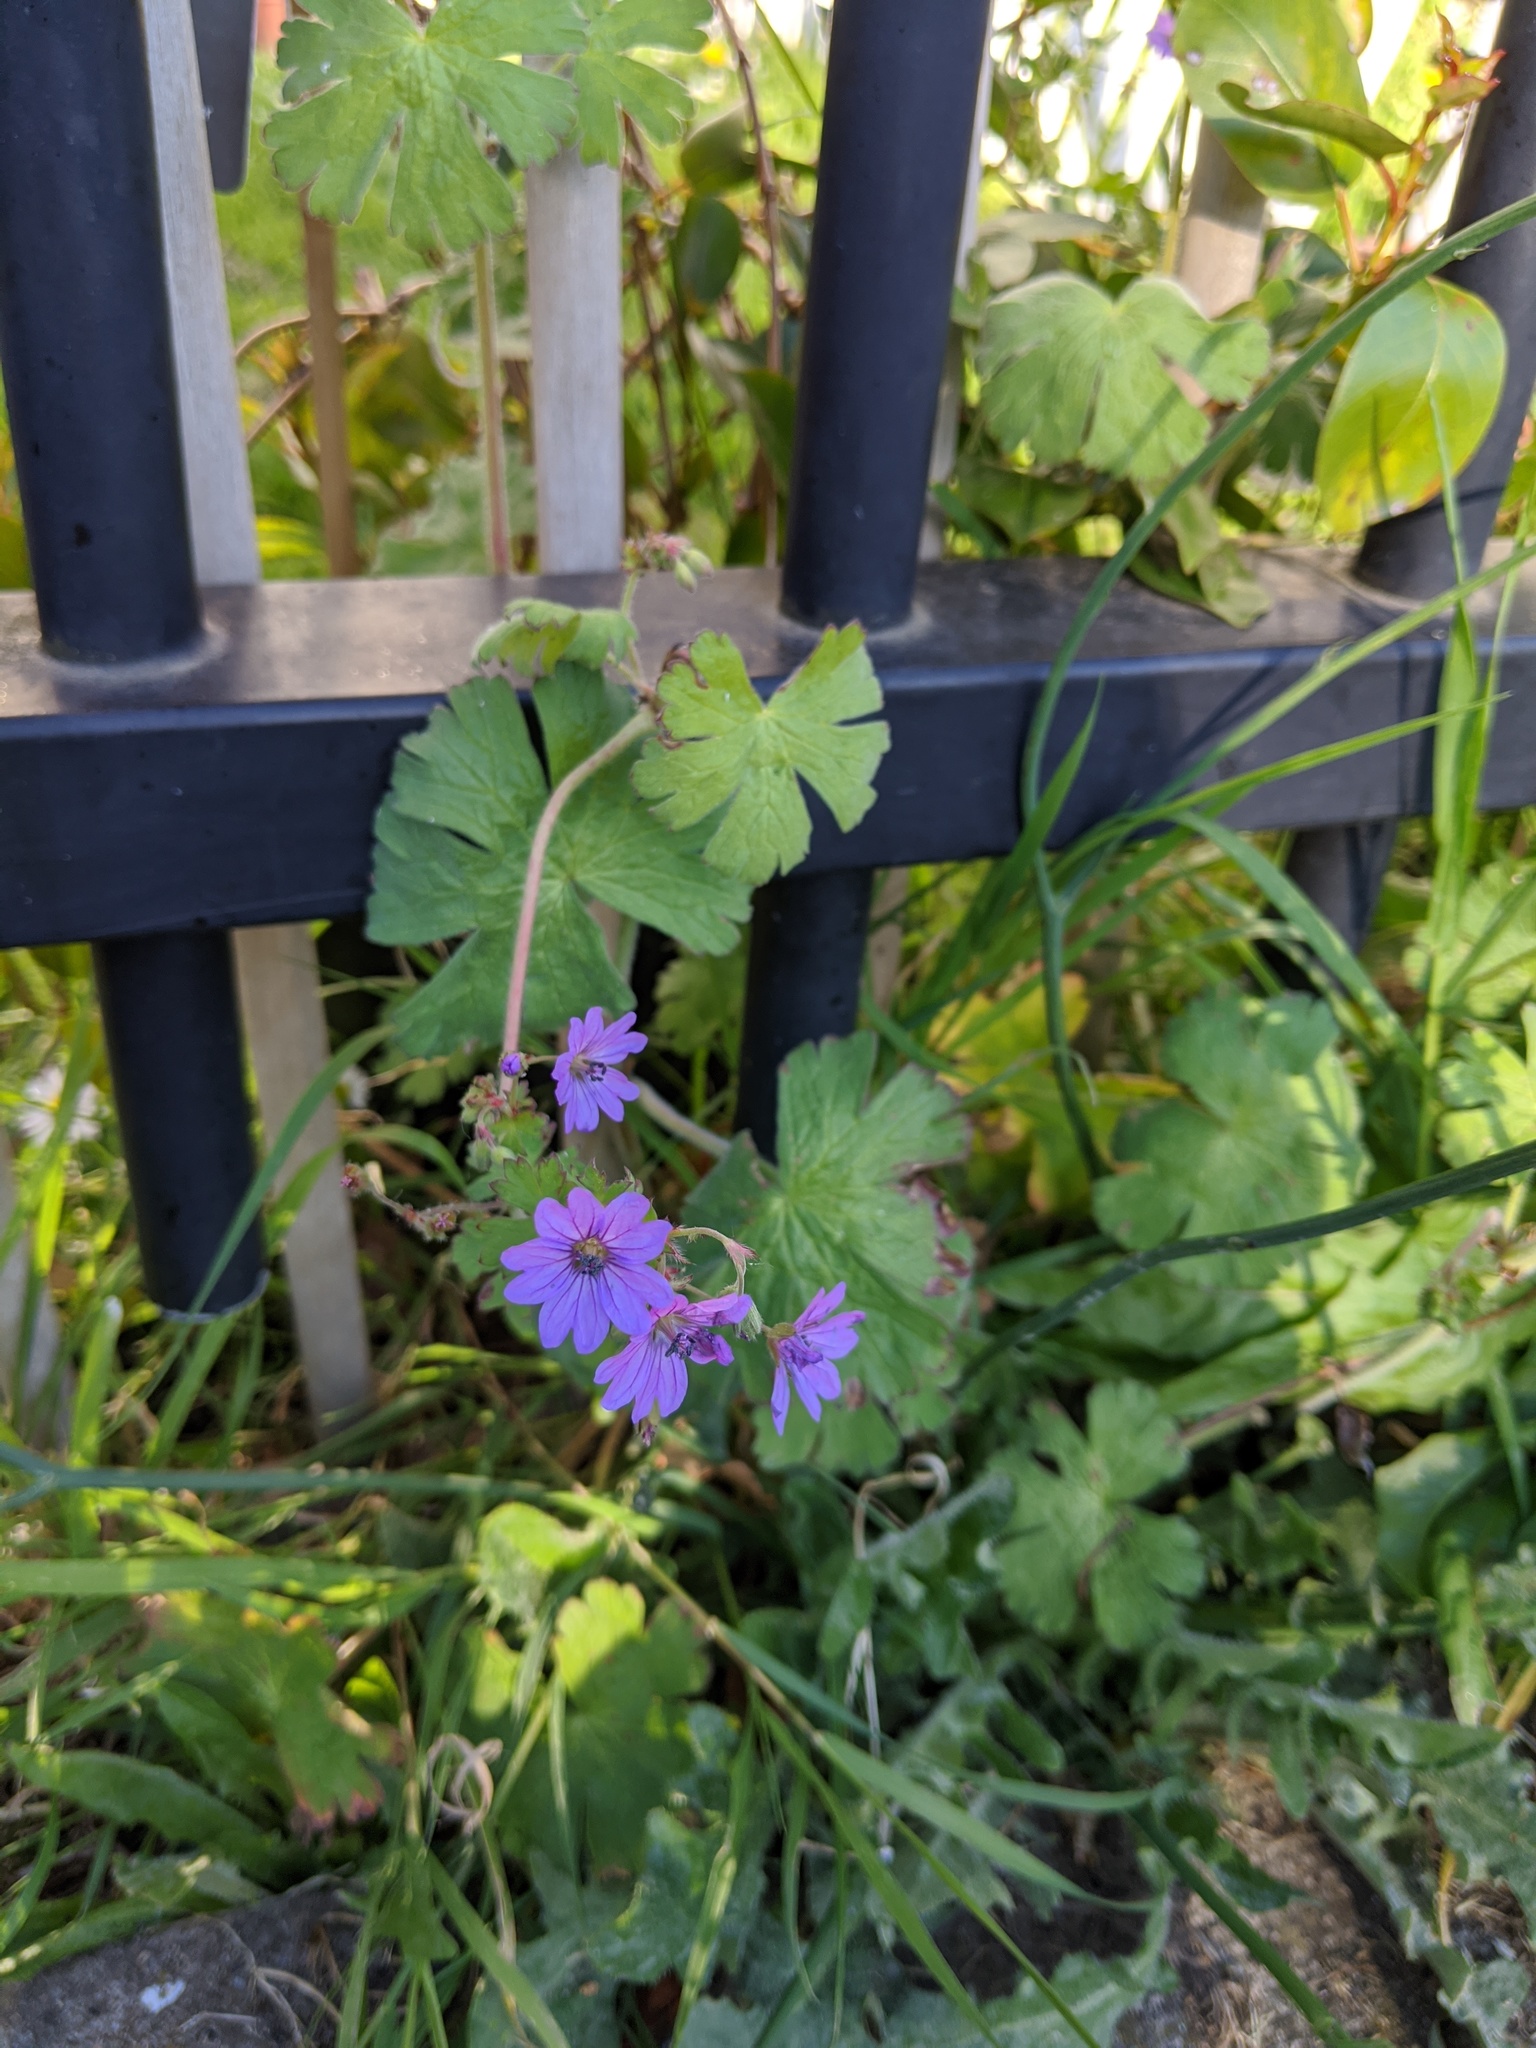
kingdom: Plantae
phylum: Tracheophyta
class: Magnoliopsida
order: Geraniales
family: Geraniaceae
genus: Geranium
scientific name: Geranium pyrenaicum
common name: Hedgerow crane's-bill
